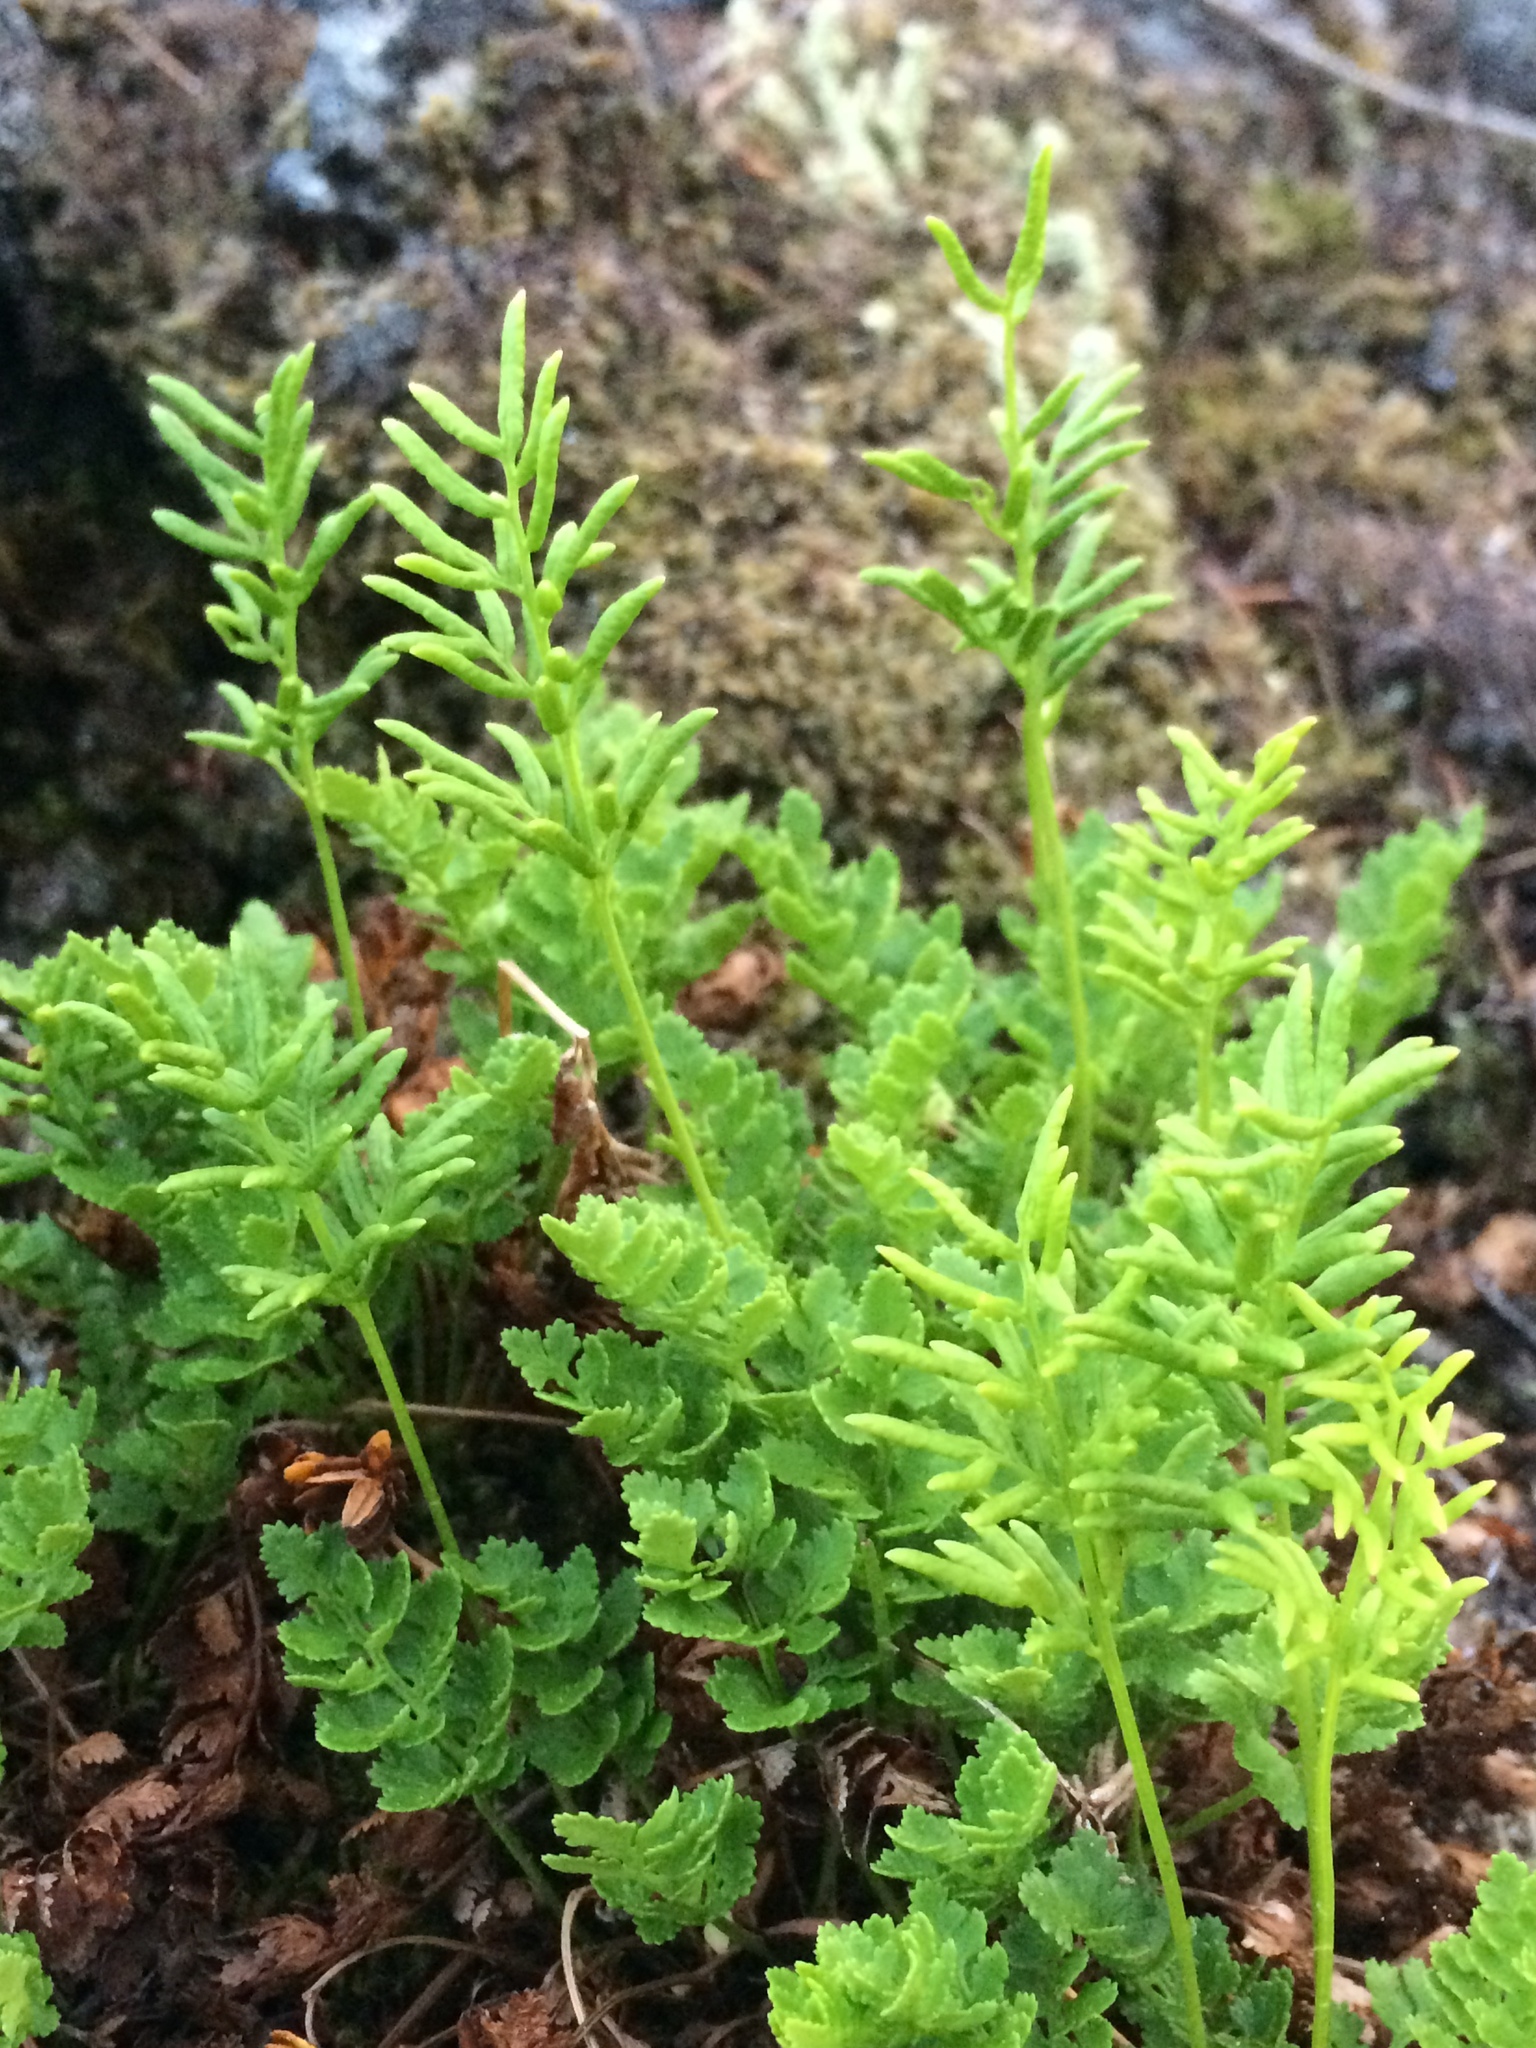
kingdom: Plantae
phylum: Tracheophyta
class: Polypodiopsida
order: Polypodiales
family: Pteridaceae
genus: Cryptogramma
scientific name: Cryptogramma acrostichoides
